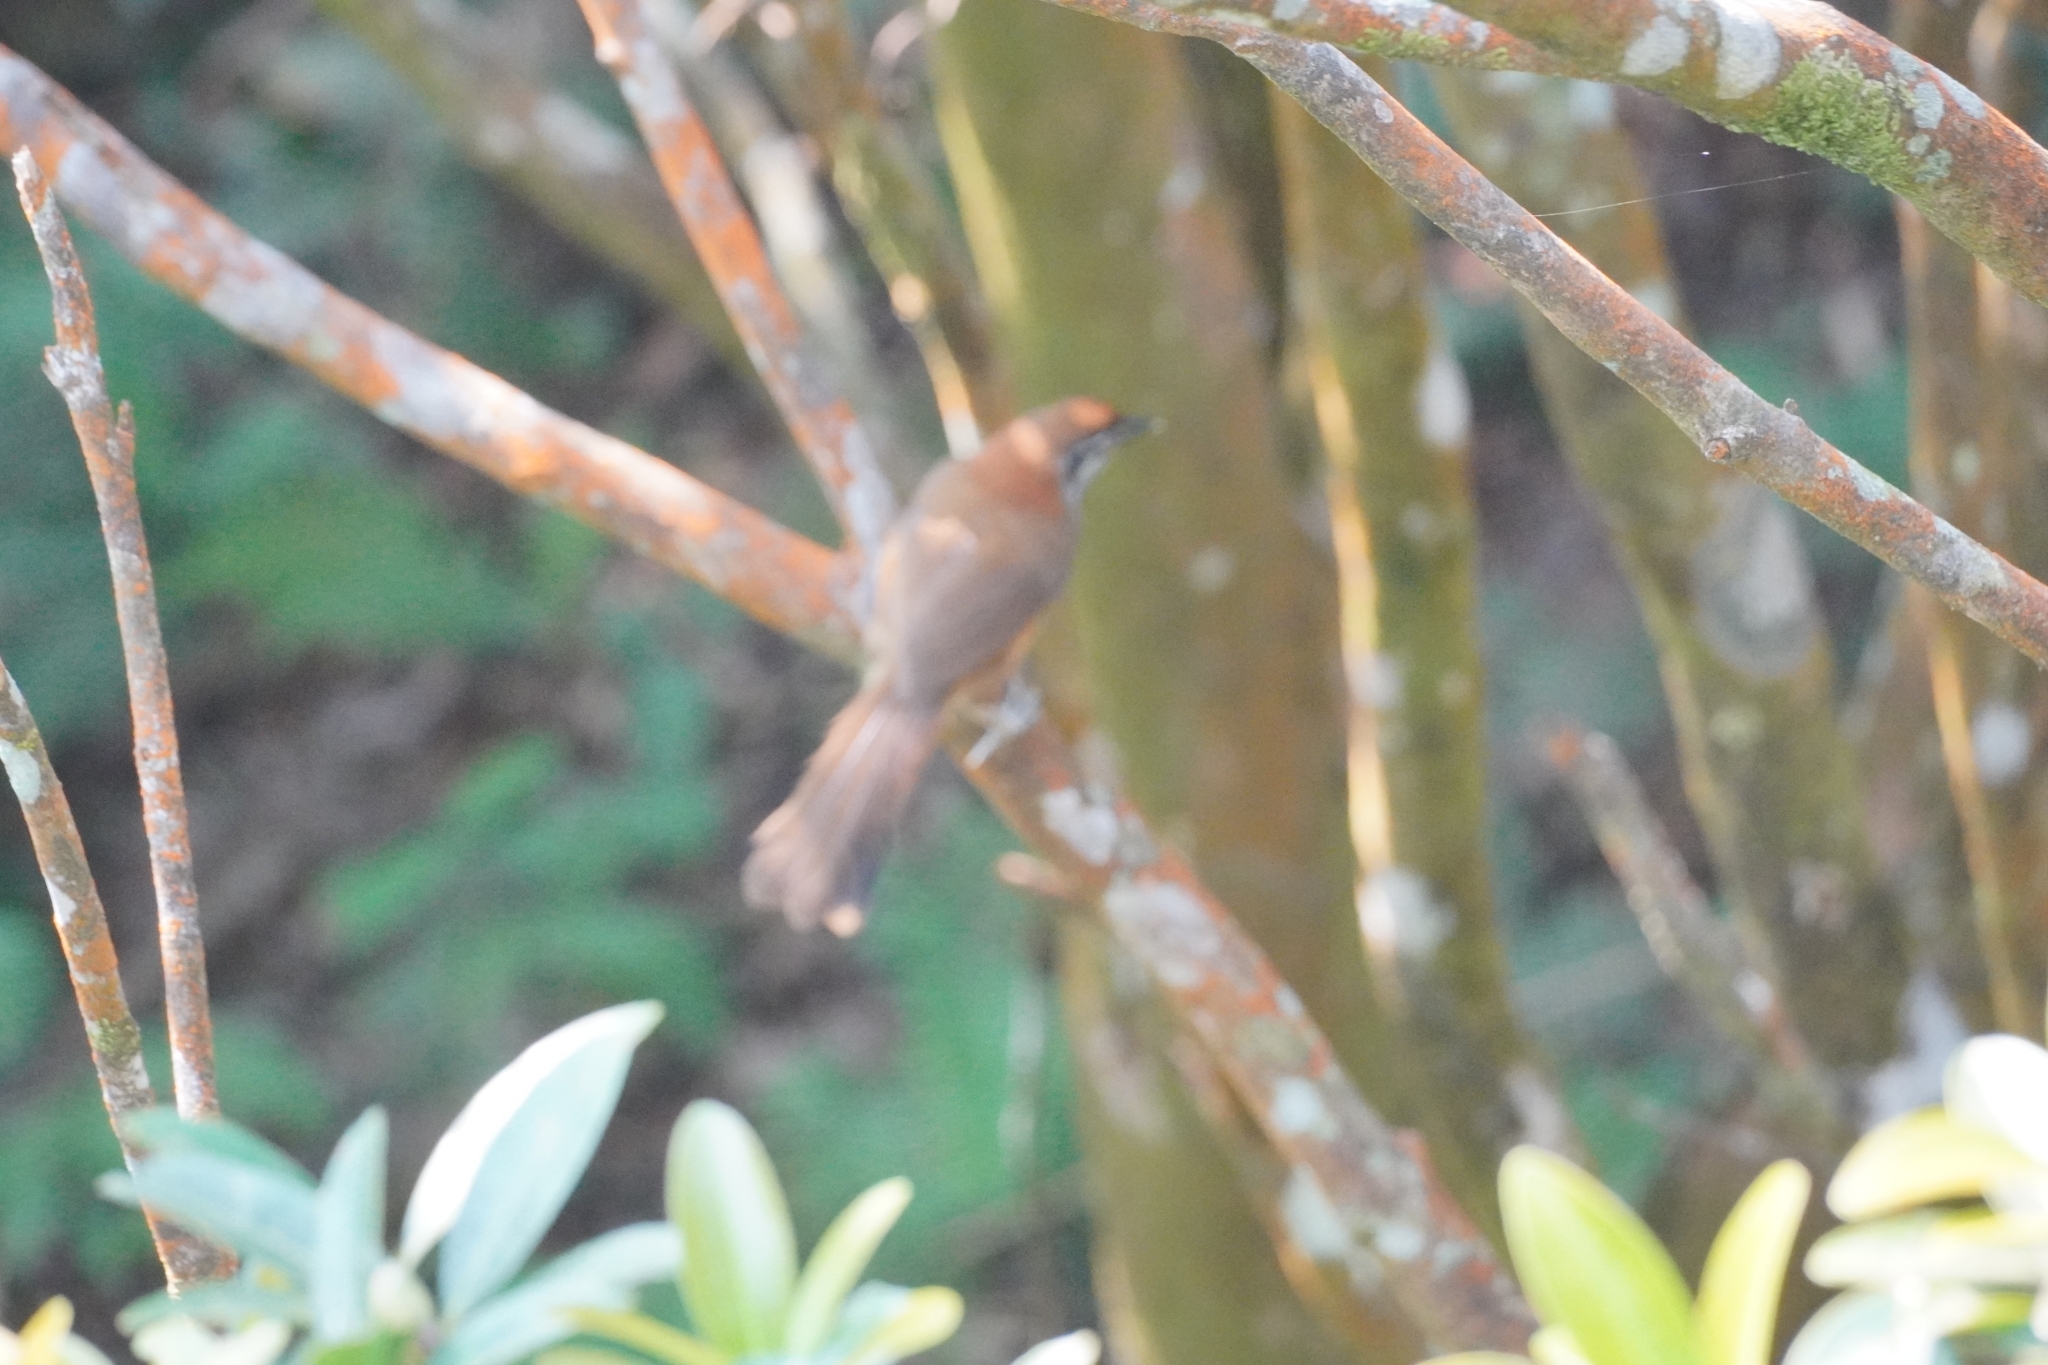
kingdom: Animalia
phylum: Chordata
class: Aves
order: Passeriformes
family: Leiothrichidae
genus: Garrulax
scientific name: Garrulax monileger
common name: Lesser necklaced laughingthrush
